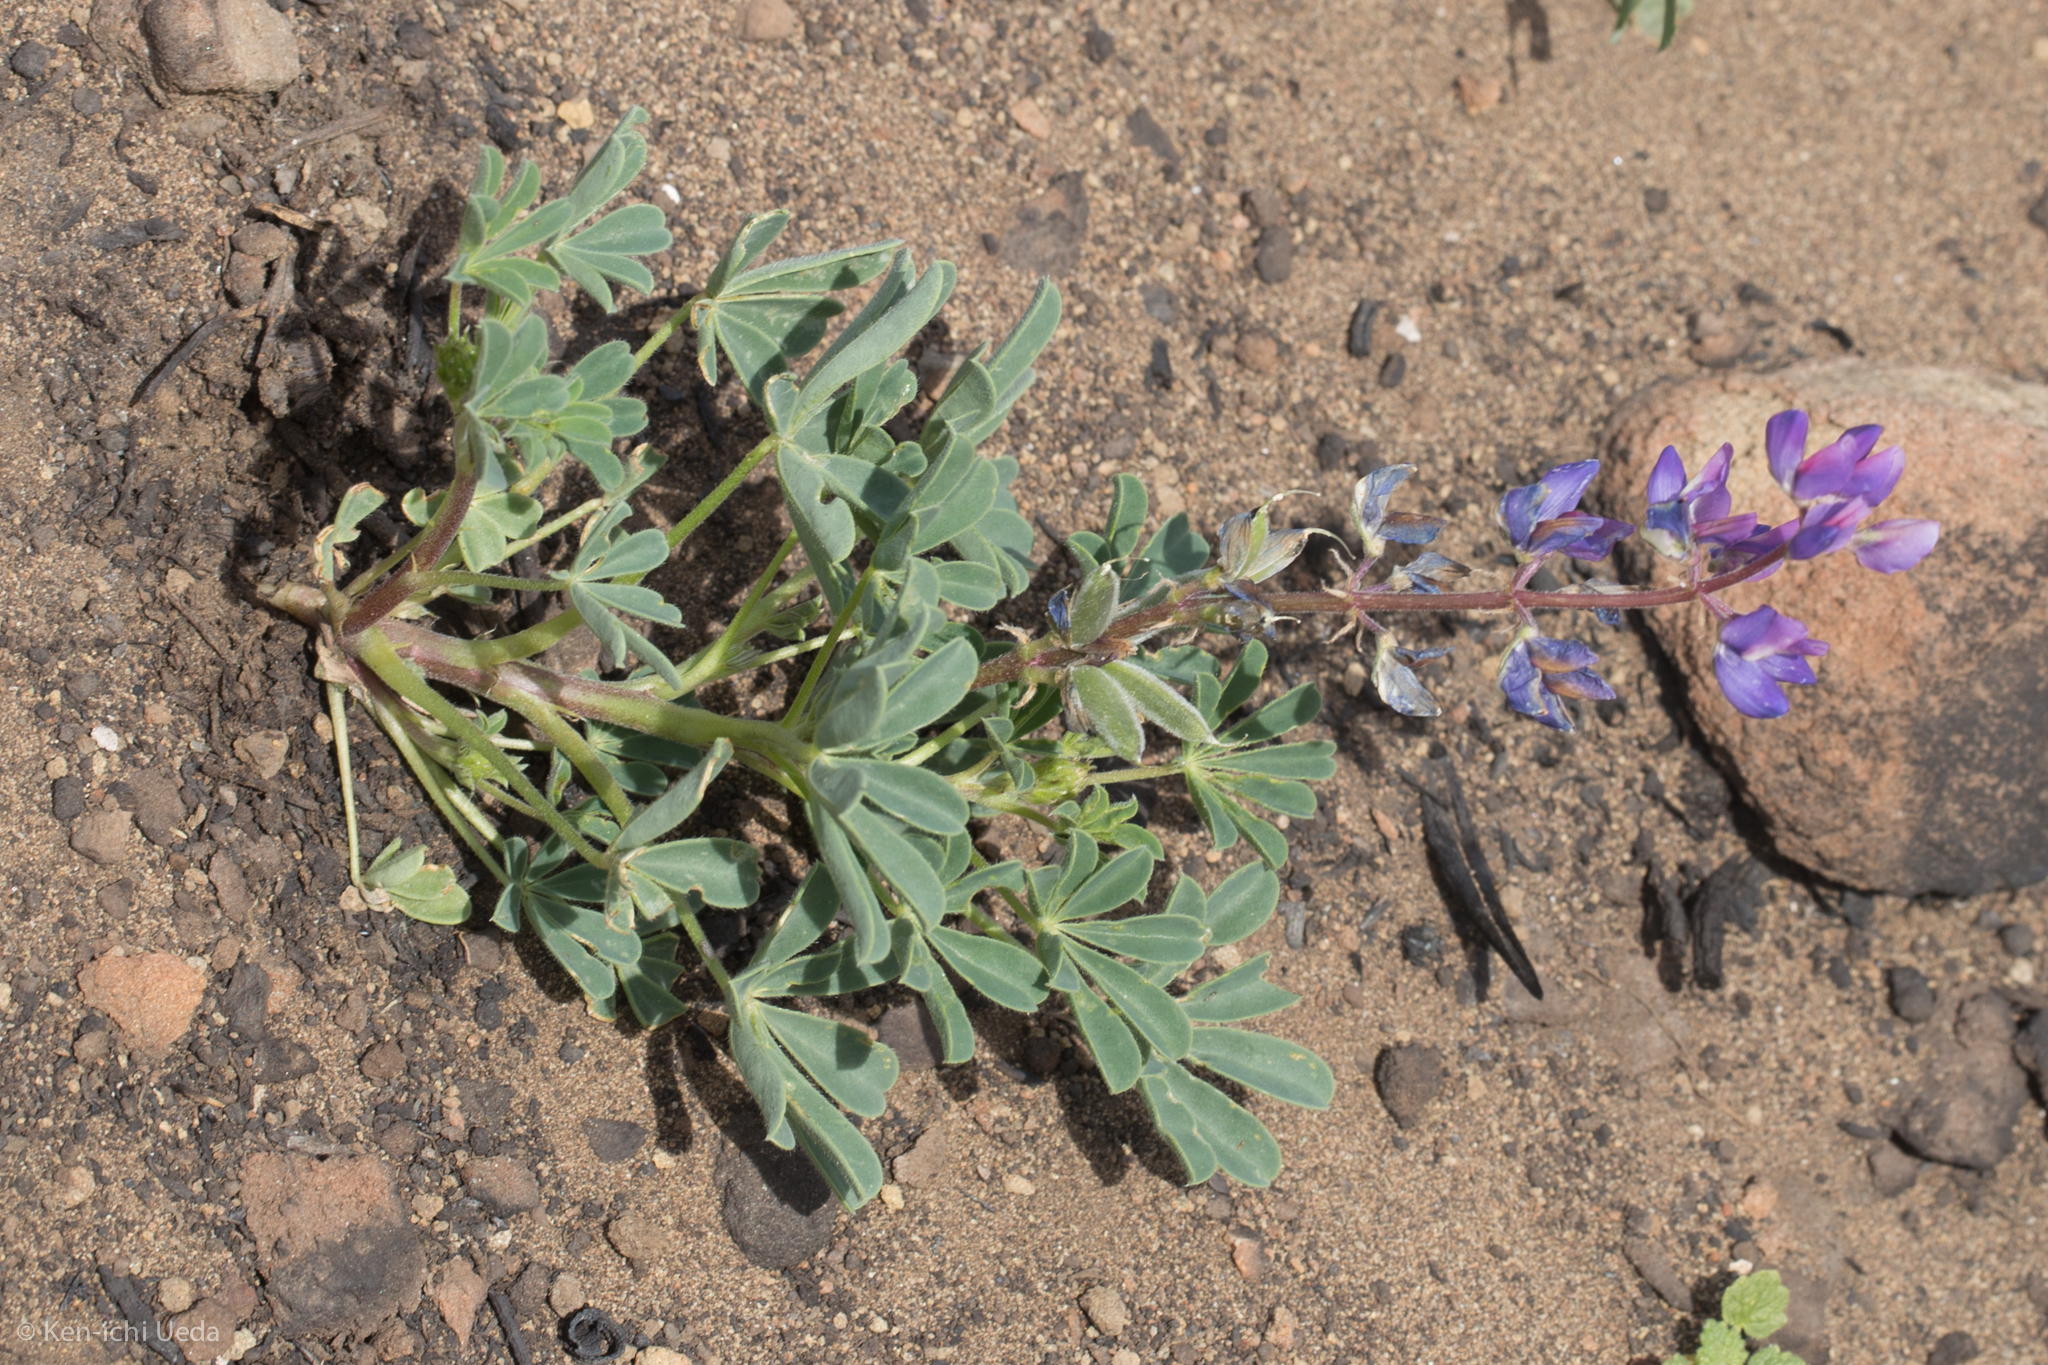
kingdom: Plantae
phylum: Tracheophyta
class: Magnoliopsida
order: Fabales
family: Fabaceae
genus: Lupinus
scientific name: Lupinus succulentus
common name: Arroyo lupine
